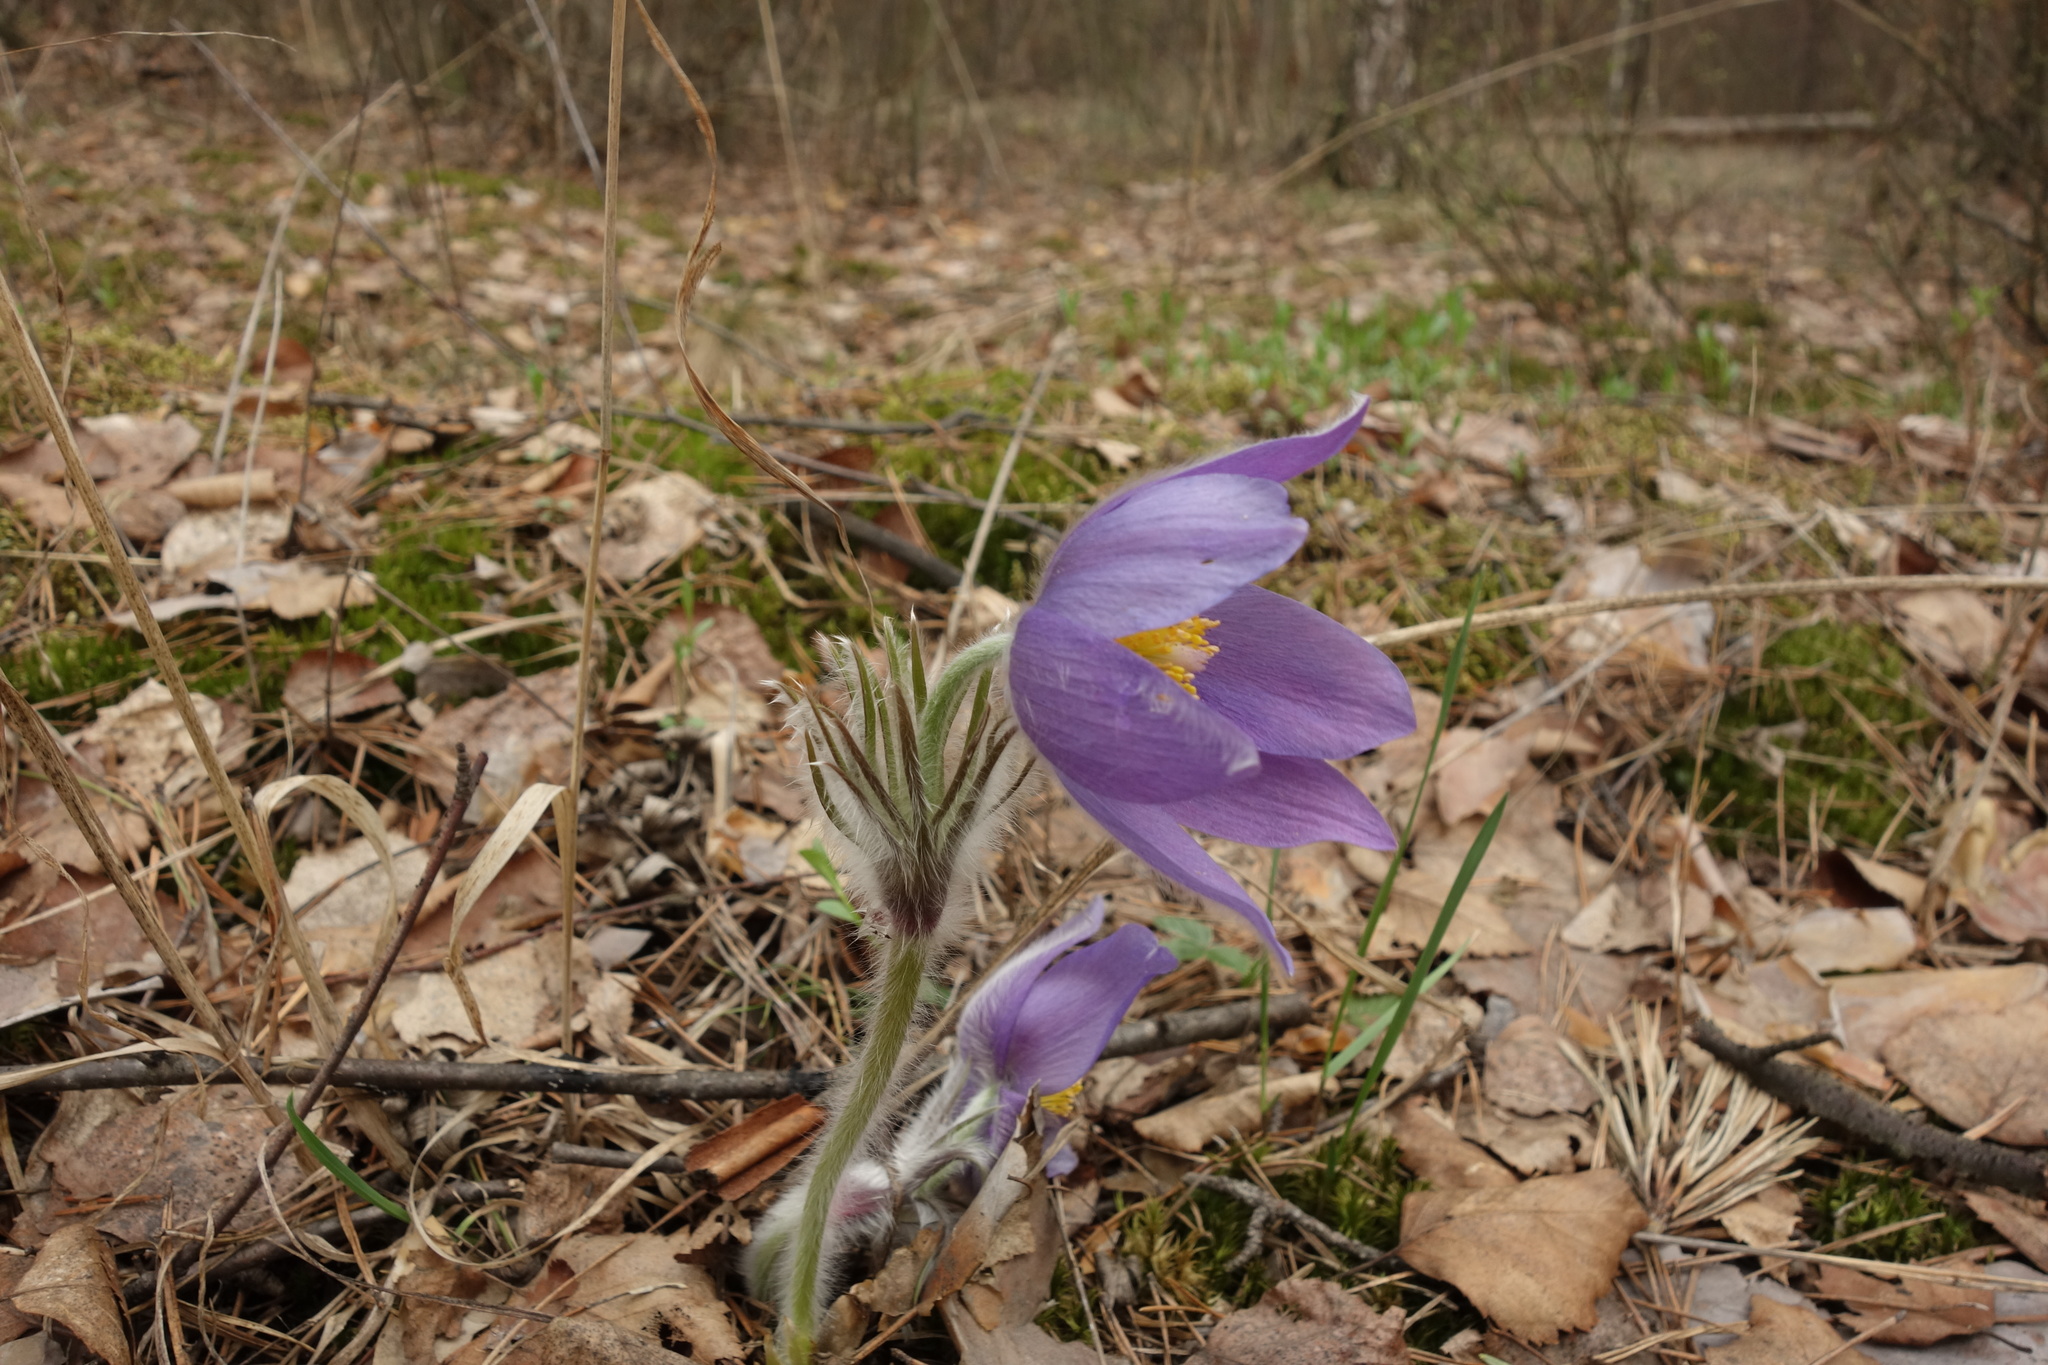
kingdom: Plantae
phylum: Tracheophyta
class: Magnoliopsida
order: Ranunculales
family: Ranunculaceae
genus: Pulsatilla
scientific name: Pulsatilla patens
